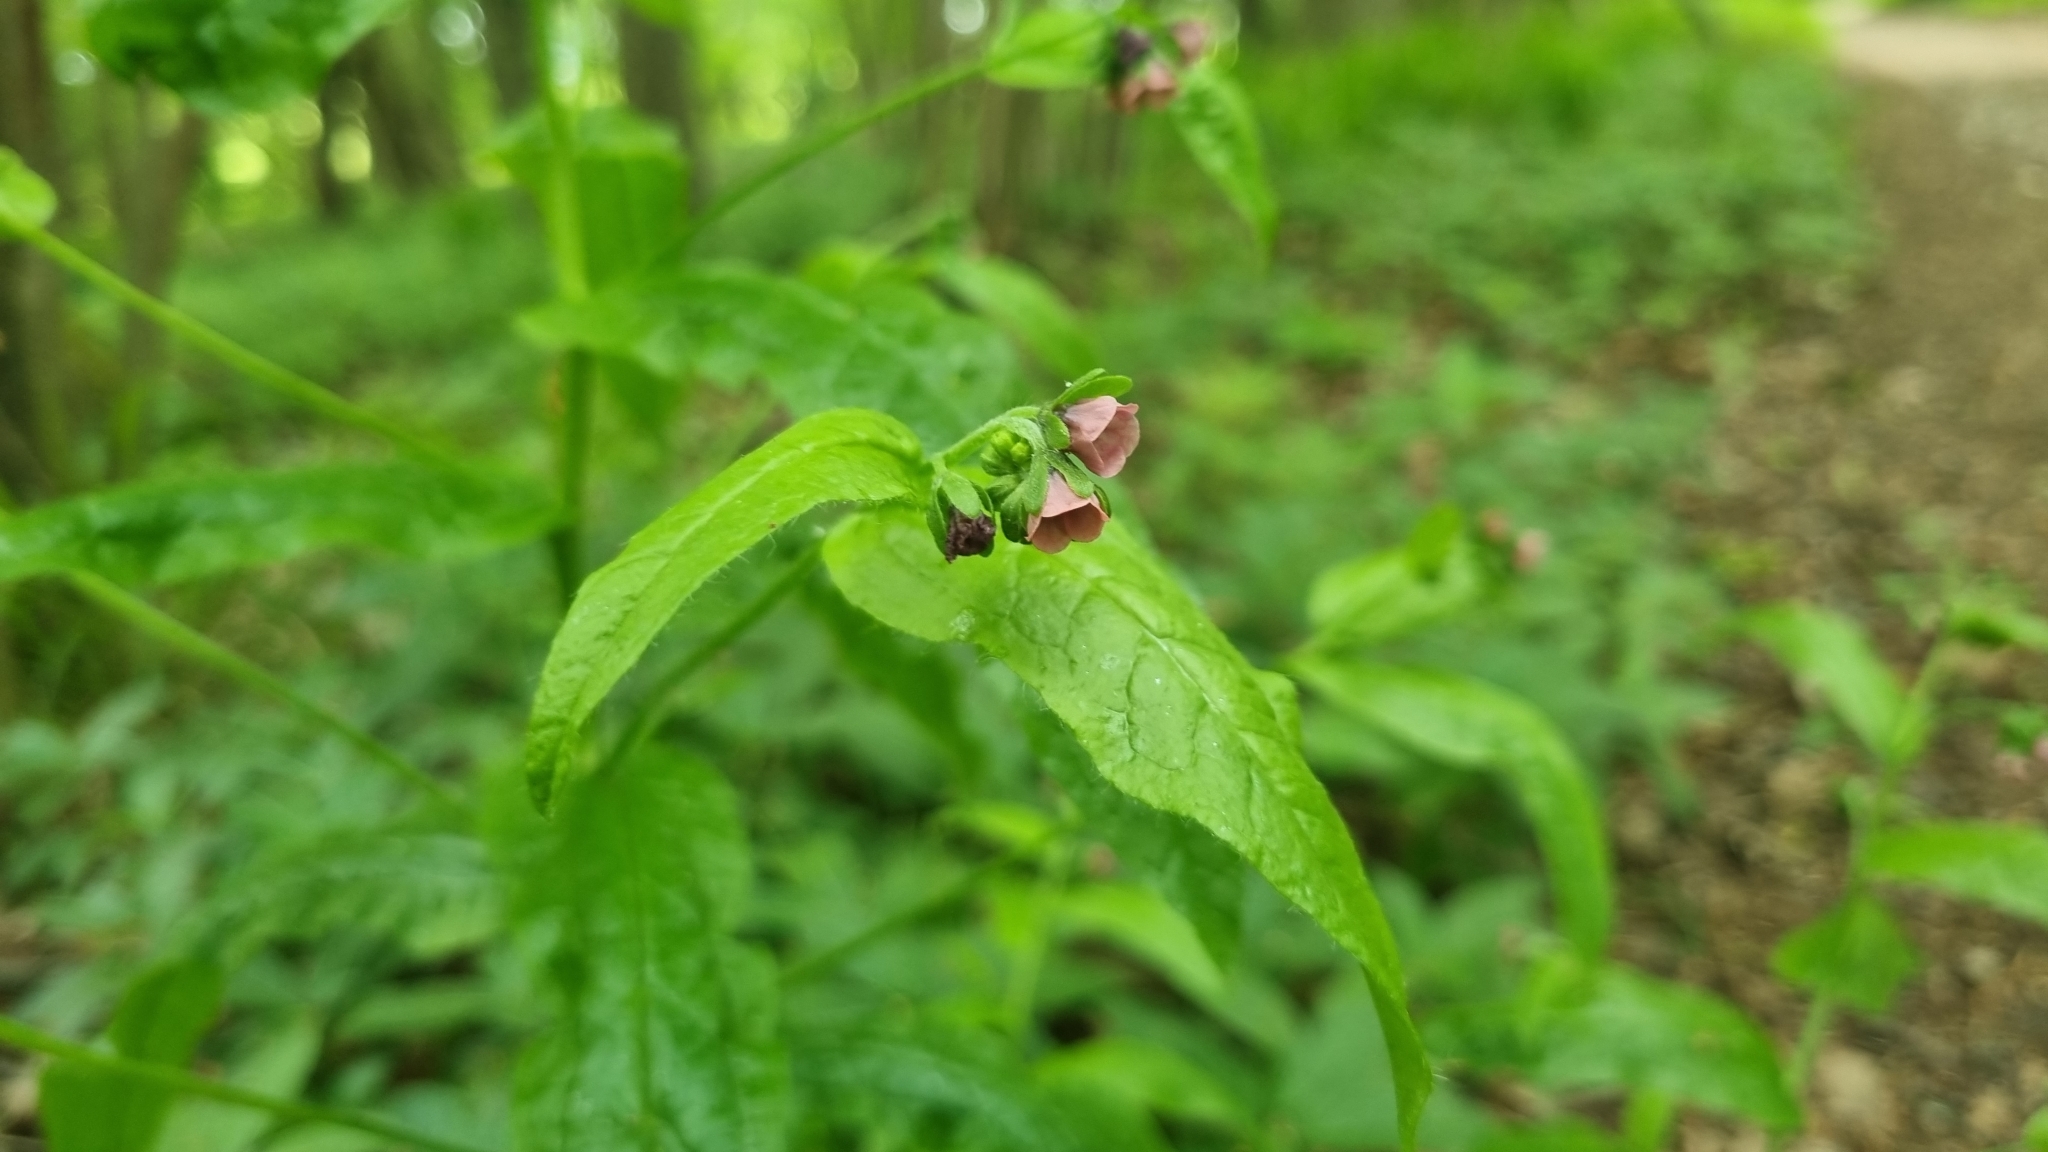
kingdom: Plantae
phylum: Tracheophyta
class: Magnoliopsida
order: Boraginales
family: Boraginaceae
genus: Cynoglossum
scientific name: Cynoglossum germanicum
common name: Green hound's-tongue
